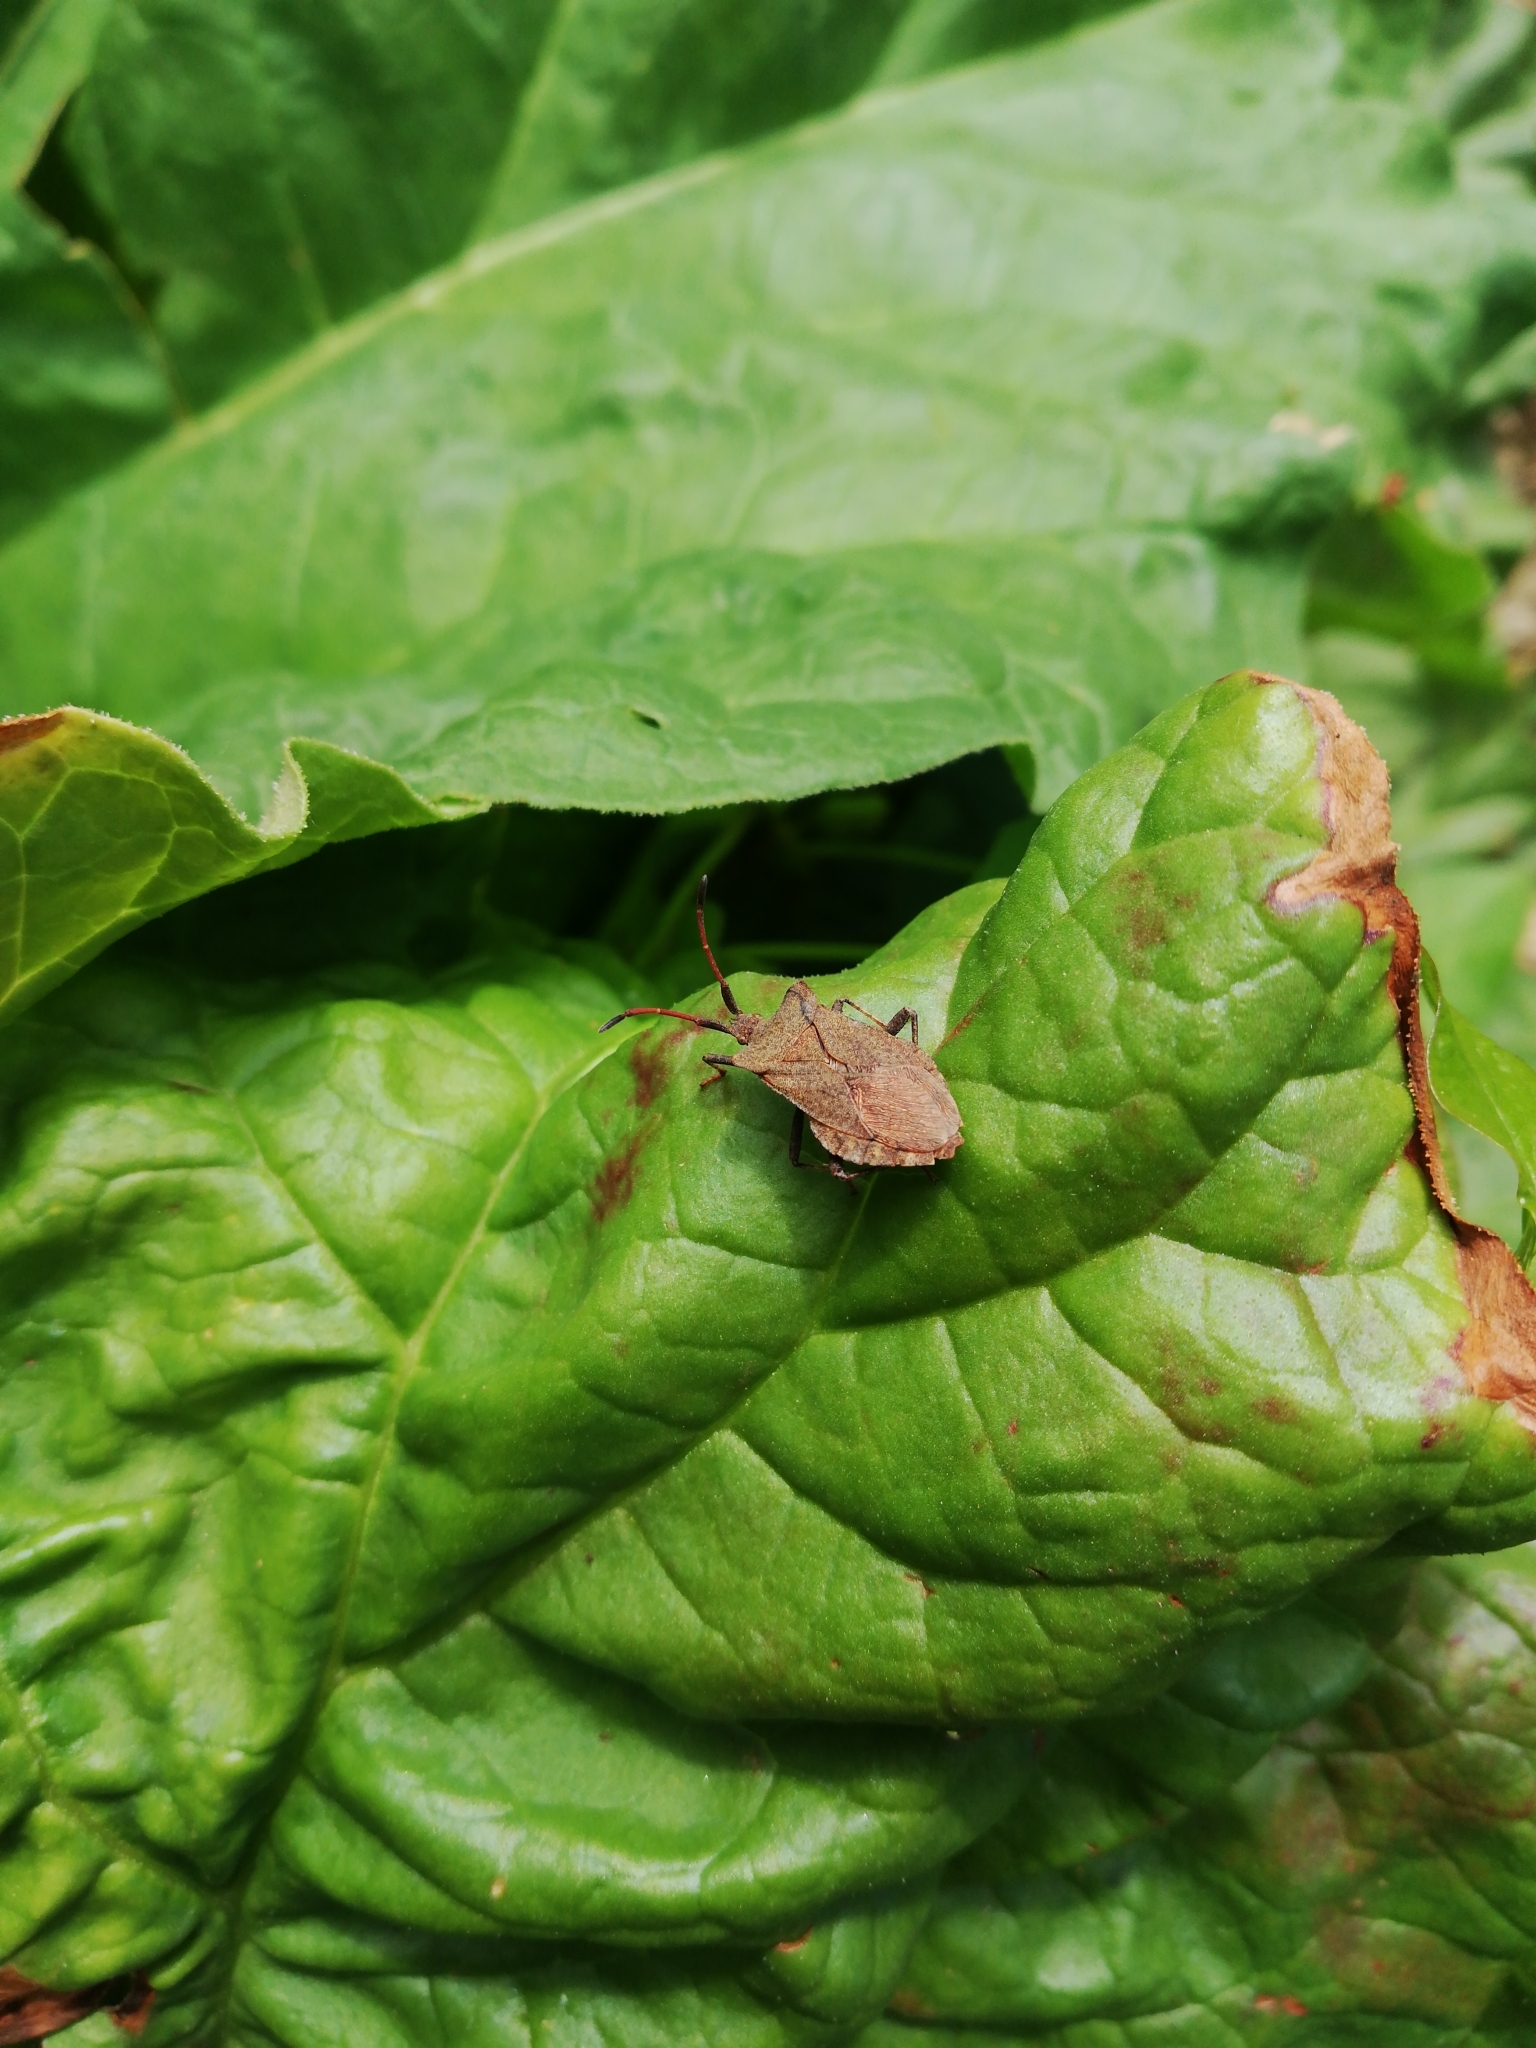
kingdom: Animalia
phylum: Arthropoda
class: Insecta
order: Hemiptera
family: Coreidae
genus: Coreus
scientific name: Coreus marginatus
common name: Dock bug
